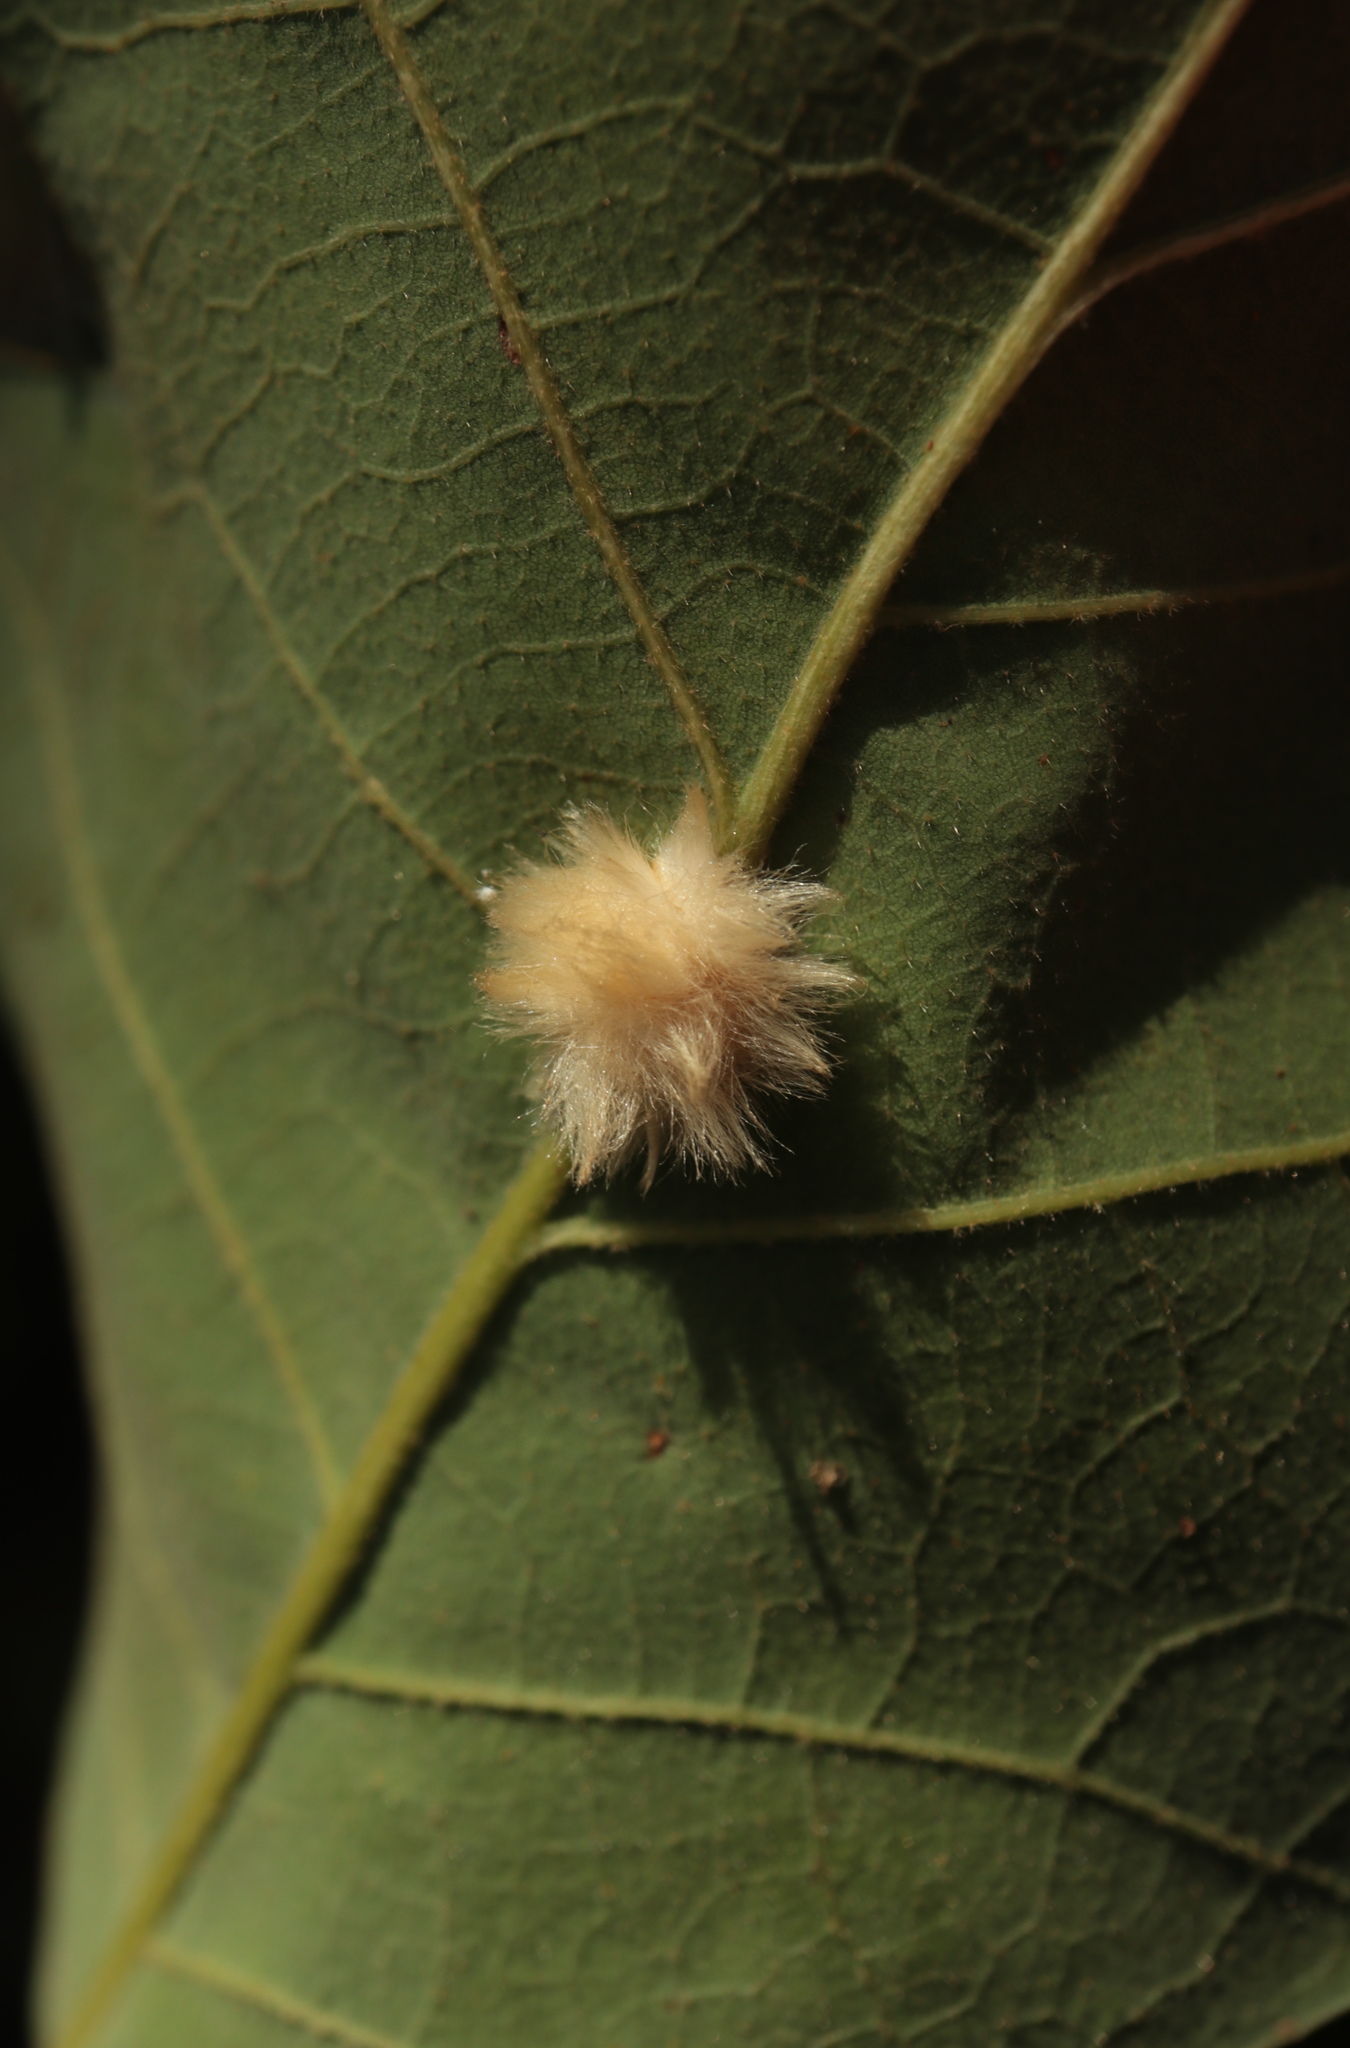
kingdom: Animalia
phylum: Arthropoda
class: Insecta
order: Hymenoptera
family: Cynipidae
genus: Andricus
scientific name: Andricus Druon pattoni
